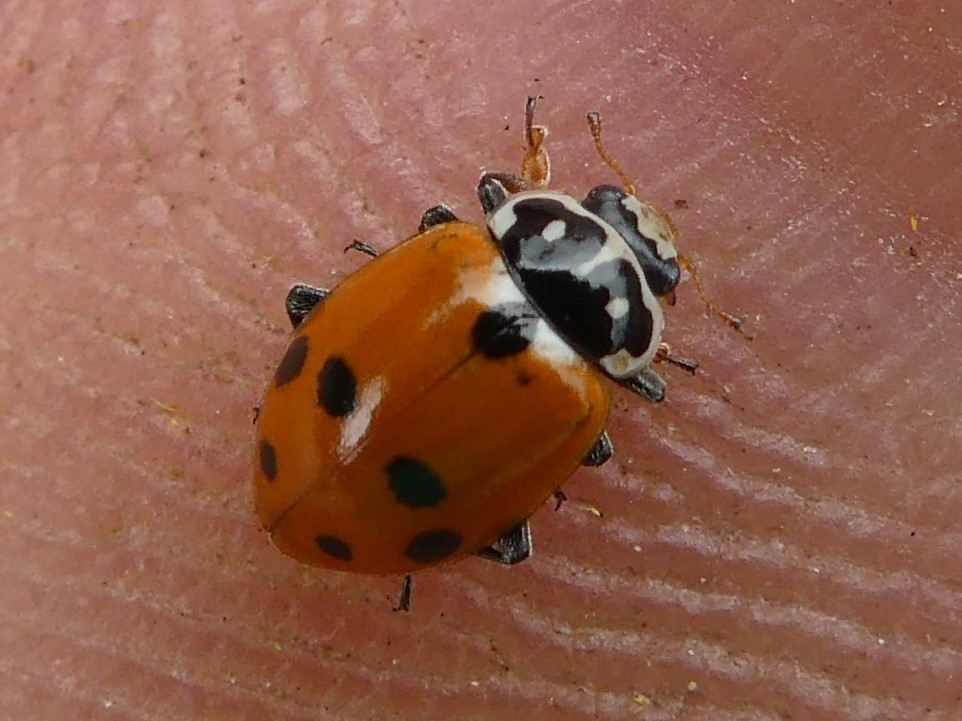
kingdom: Animalia
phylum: Arthropoda
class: Insecta
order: Coleoptera
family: Coccinellidae
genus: Hippodamia
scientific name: Hippodamia variegata
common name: Ladybird beetle
